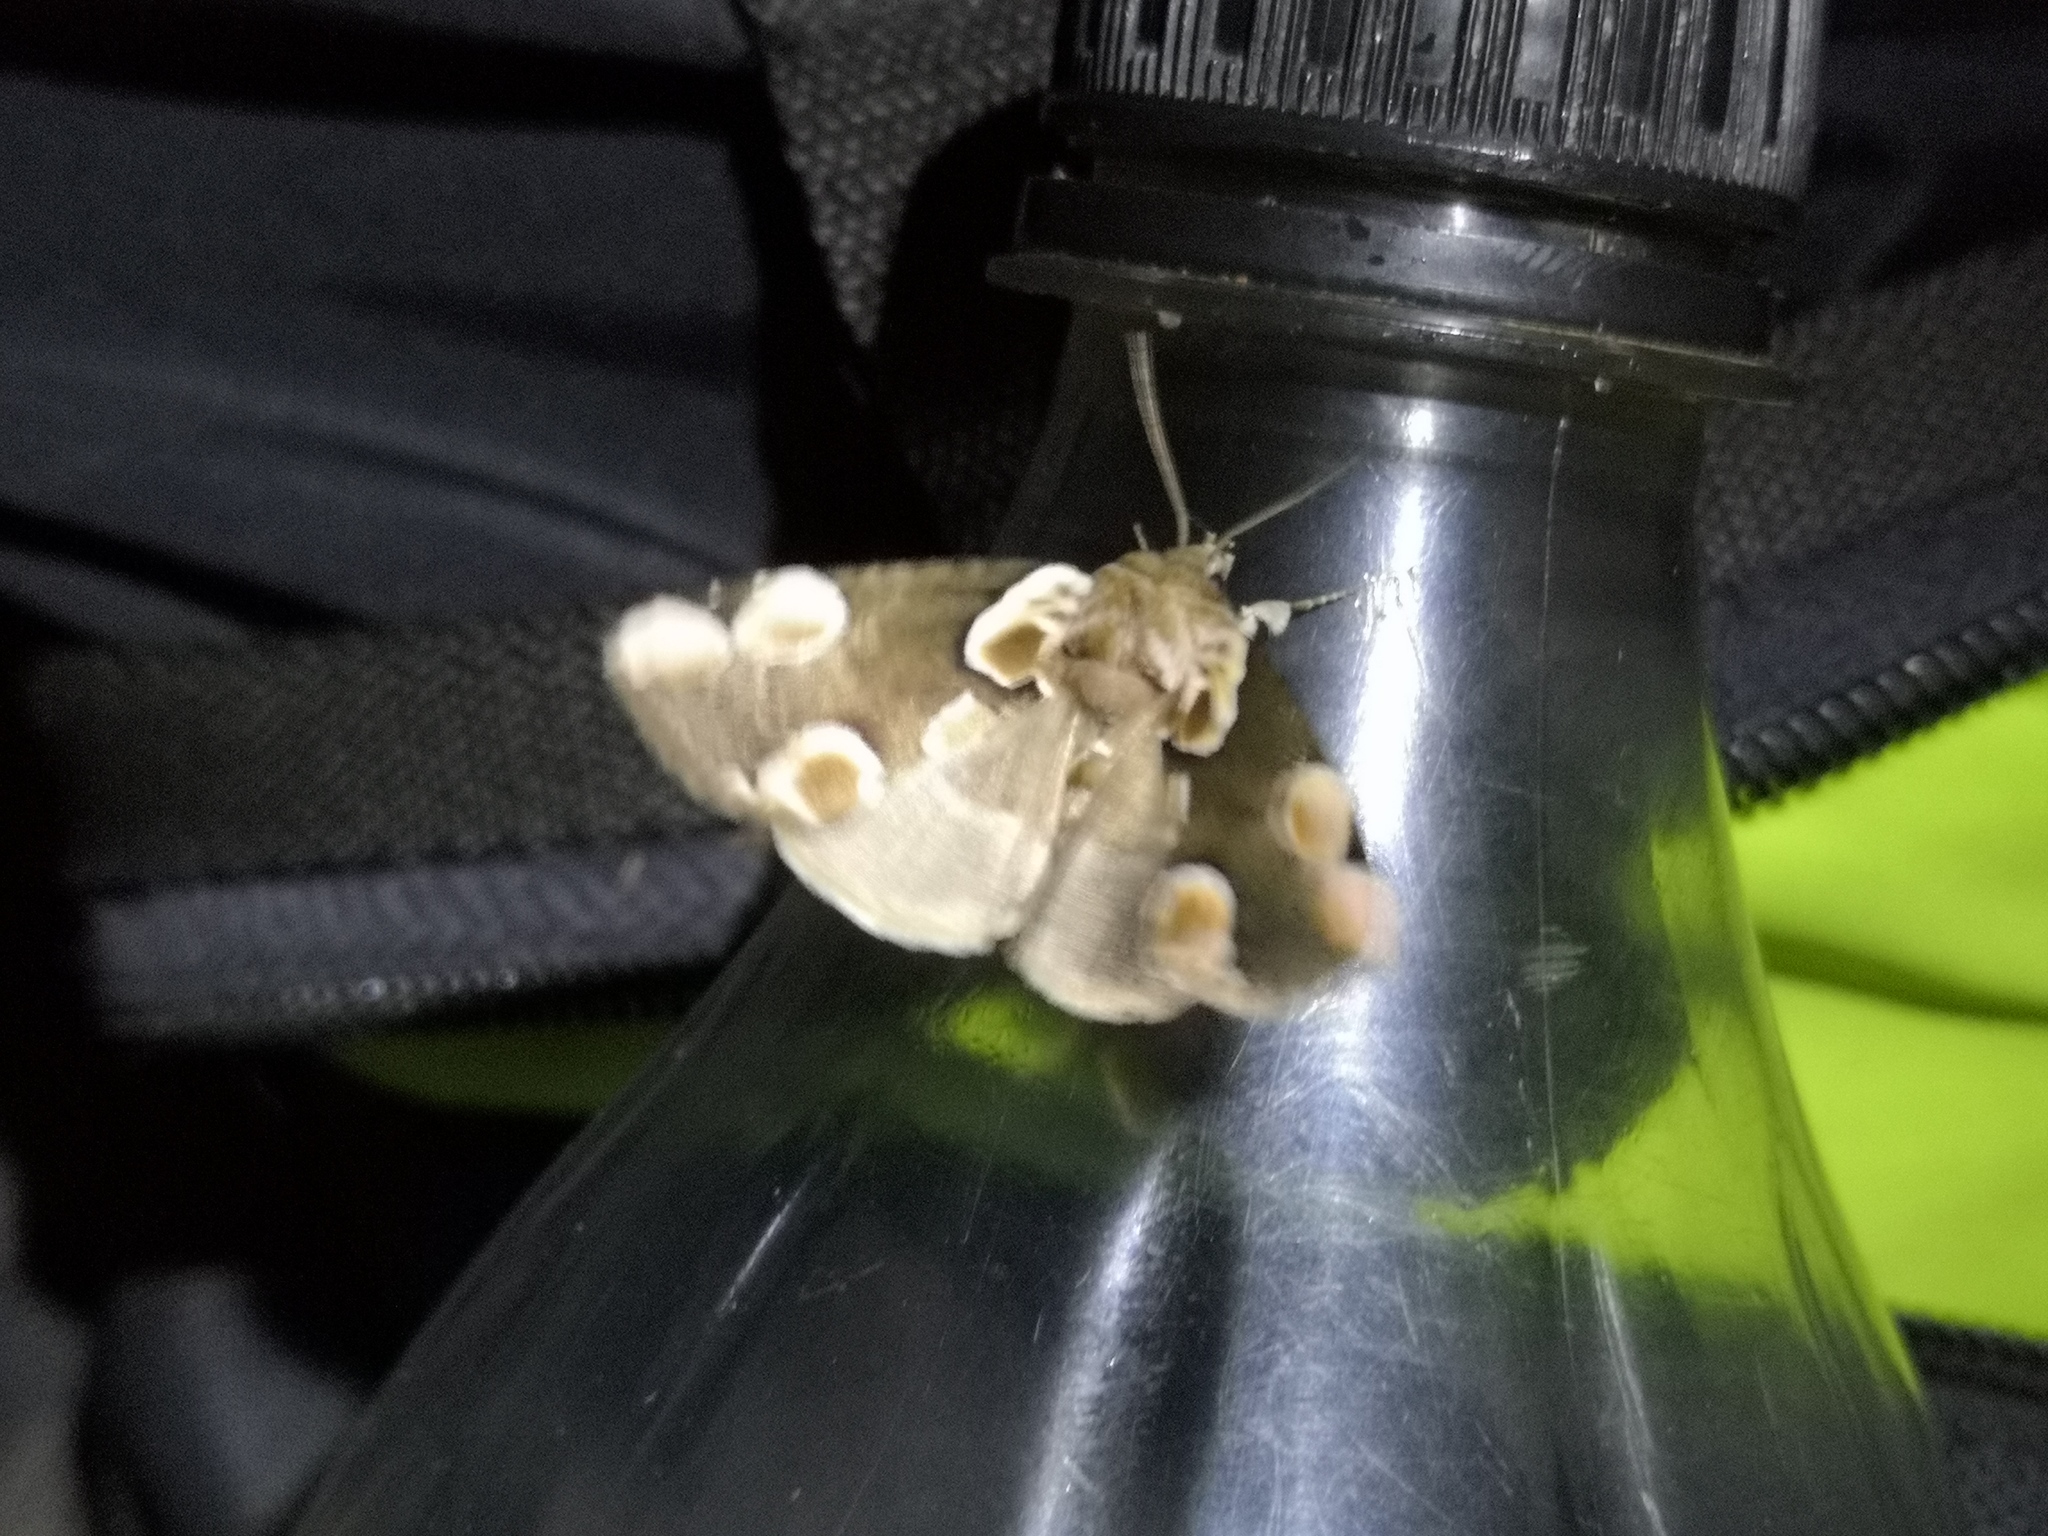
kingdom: Animalia
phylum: Arthropoda
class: Insecta
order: Lepidoptera
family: Drepanidae
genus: Thyatira
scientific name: Thyatira batis
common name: Peach blossom
